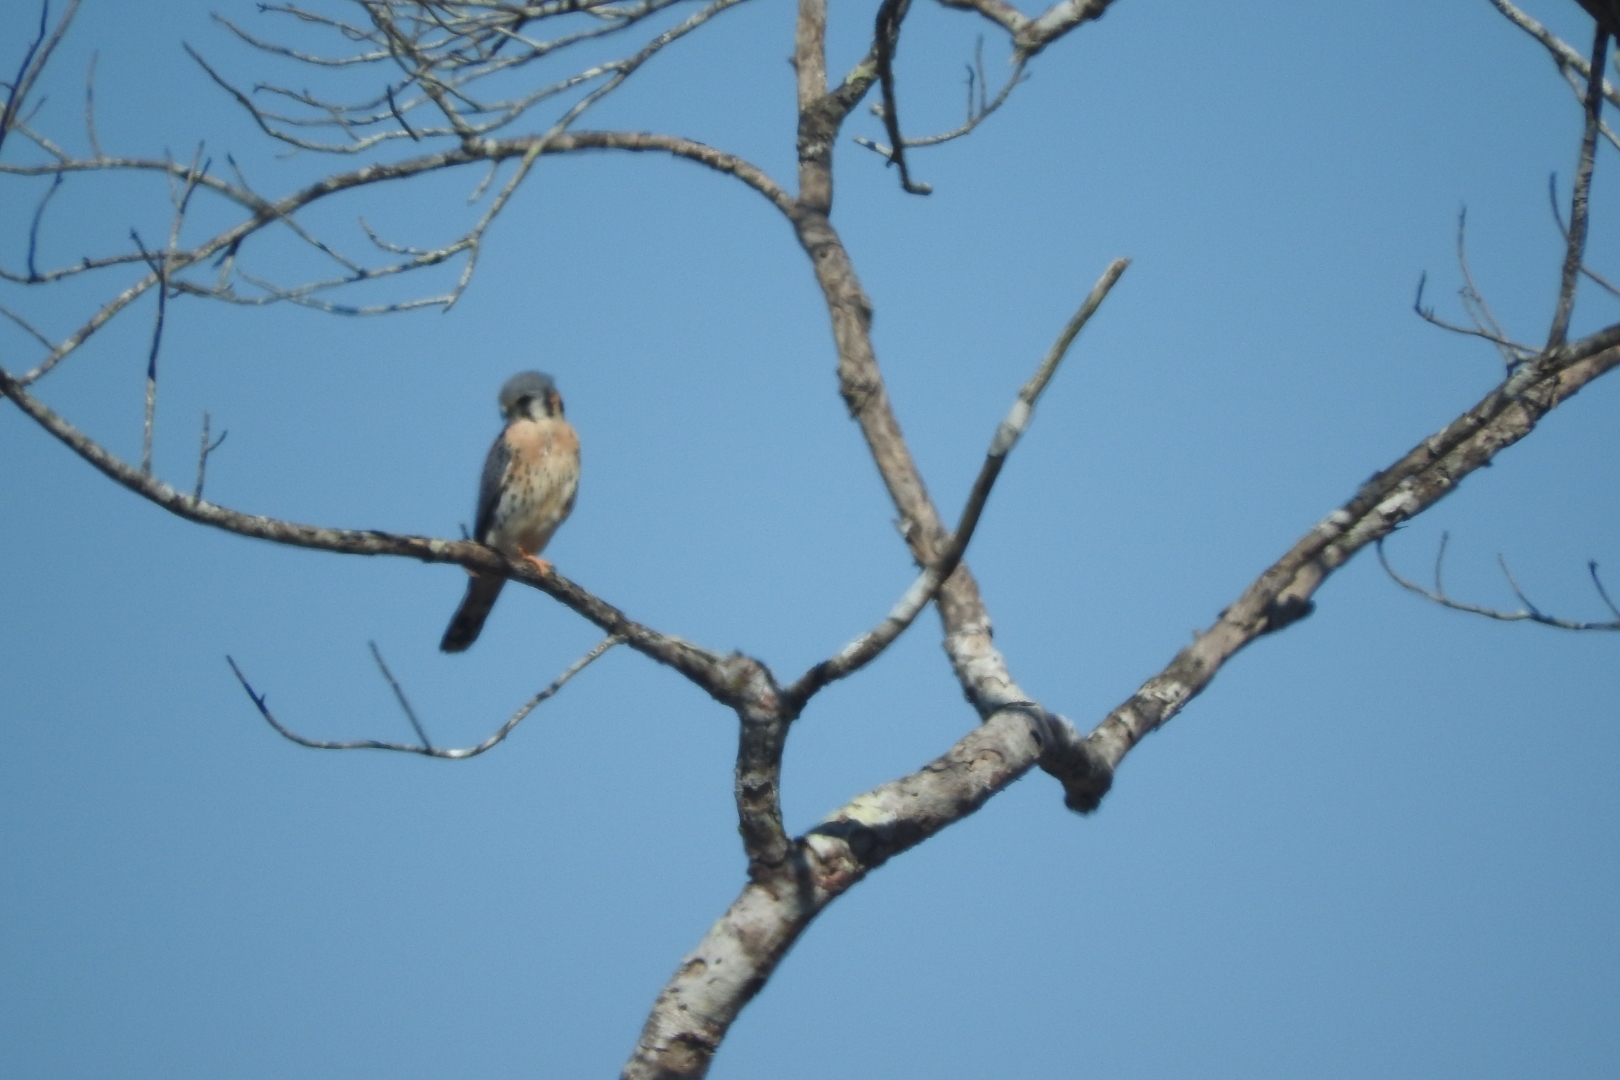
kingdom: Animalia
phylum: Chordata
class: Aves
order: Falconiformes
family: Falconidae
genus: Falco
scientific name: Falco sparverius
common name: American kestrel
